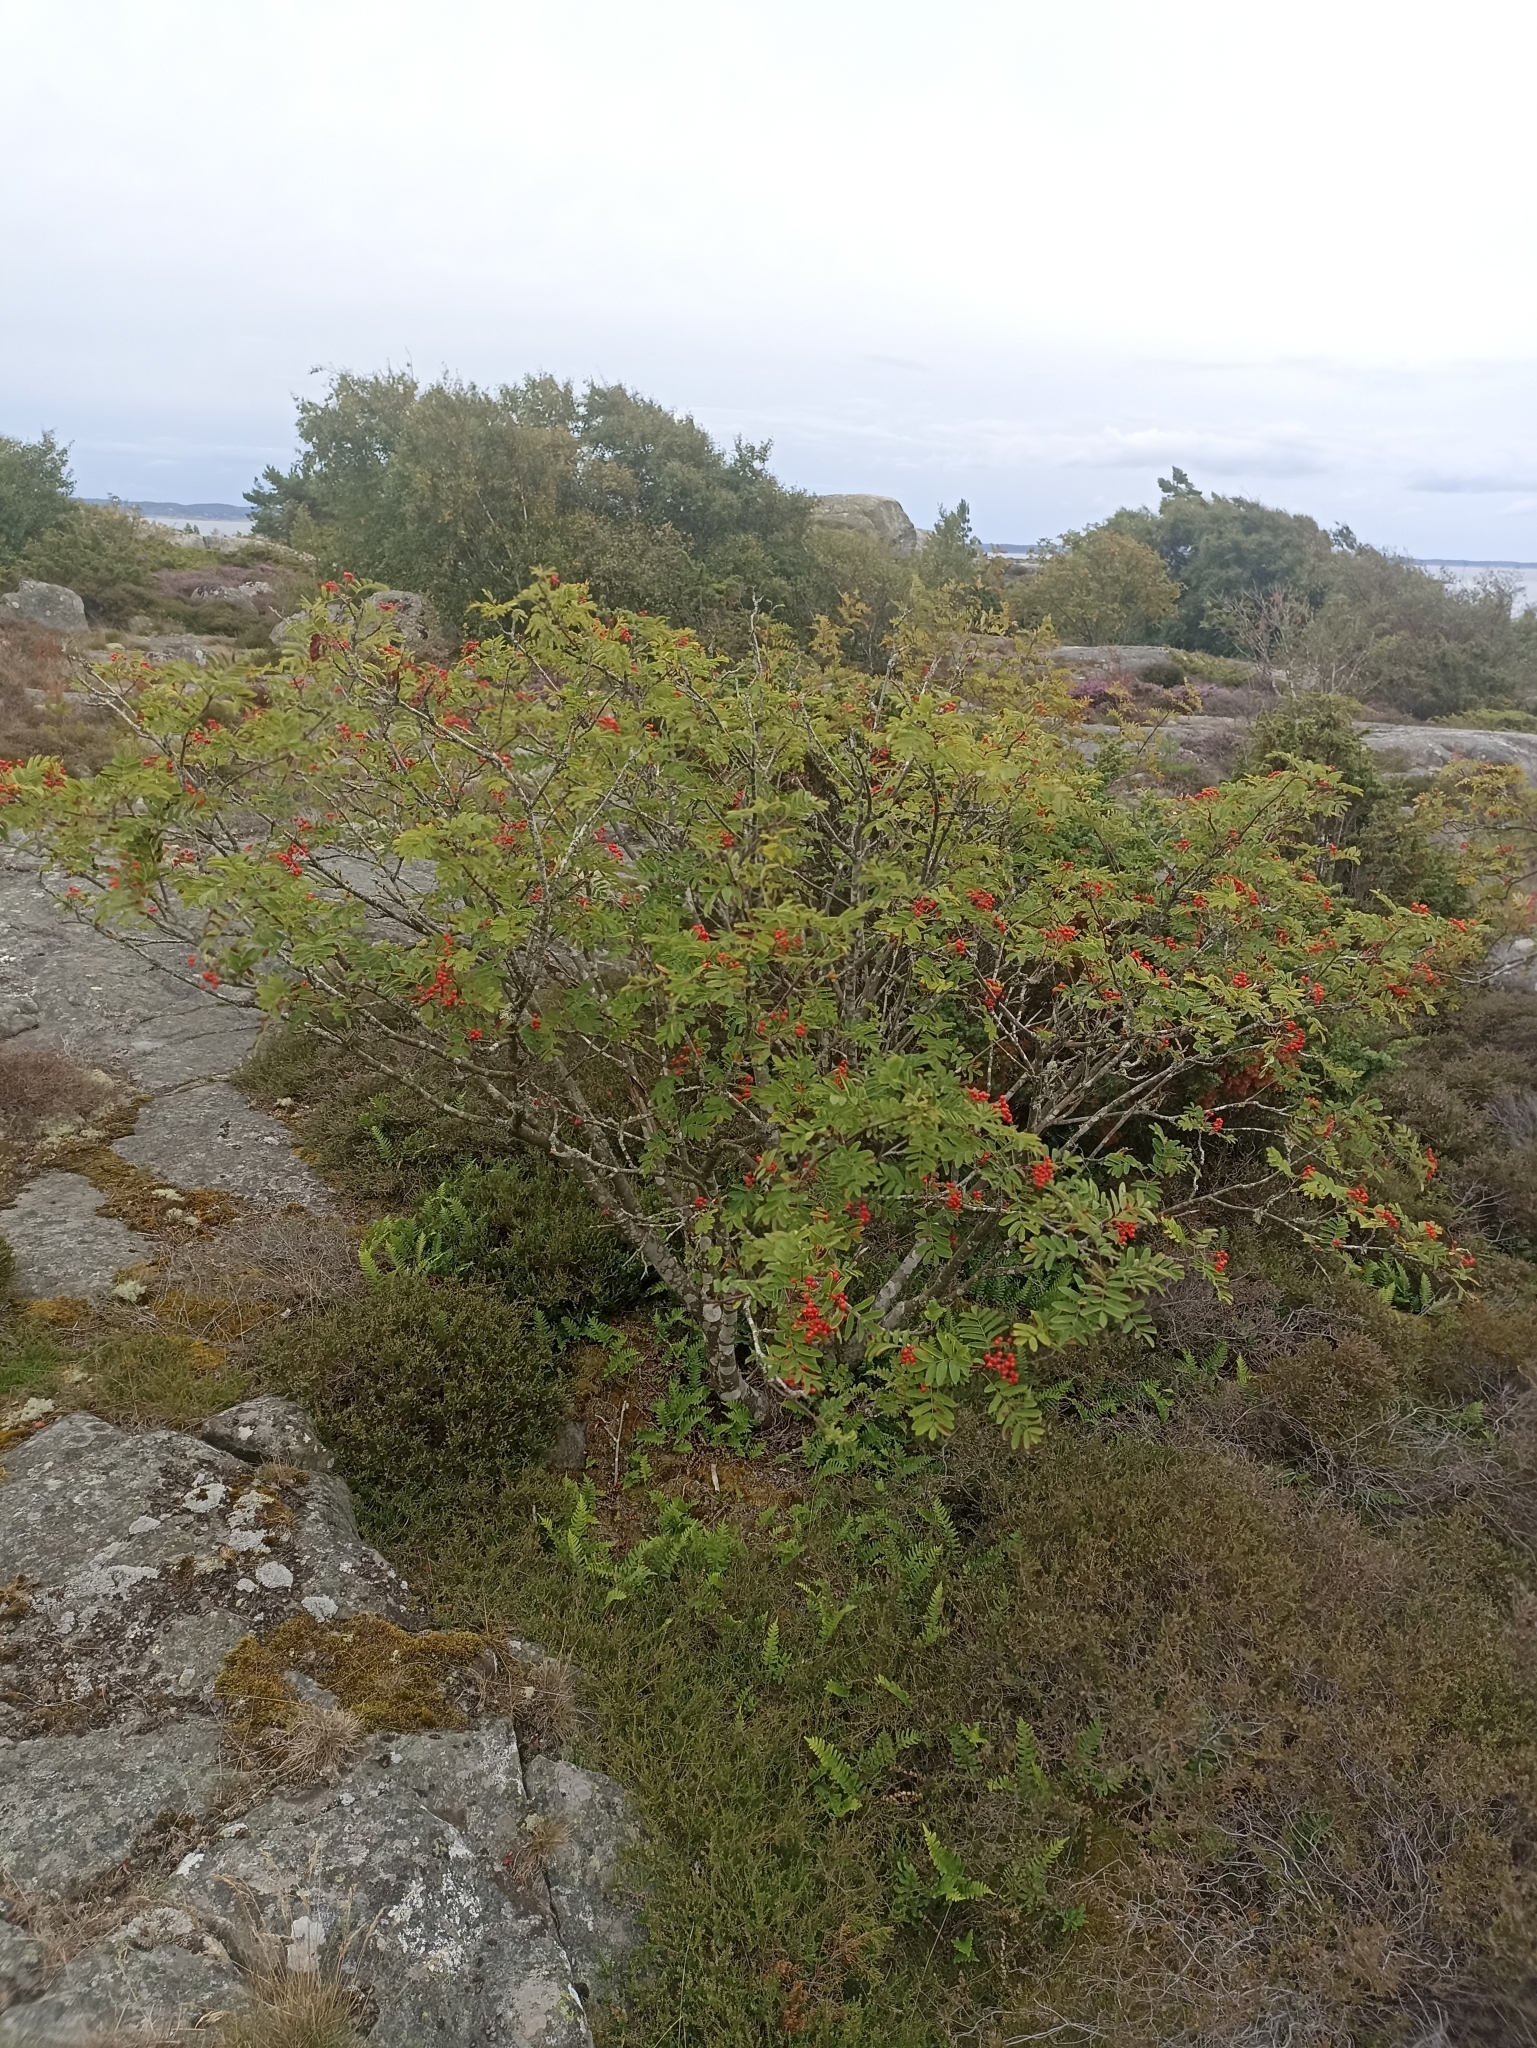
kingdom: Plantae
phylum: Tracheophyta
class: Magnoliopsida
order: Rosales
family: Rosaceae
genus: Sorbus
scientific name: Sorbus aucuparia
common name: Rowan
